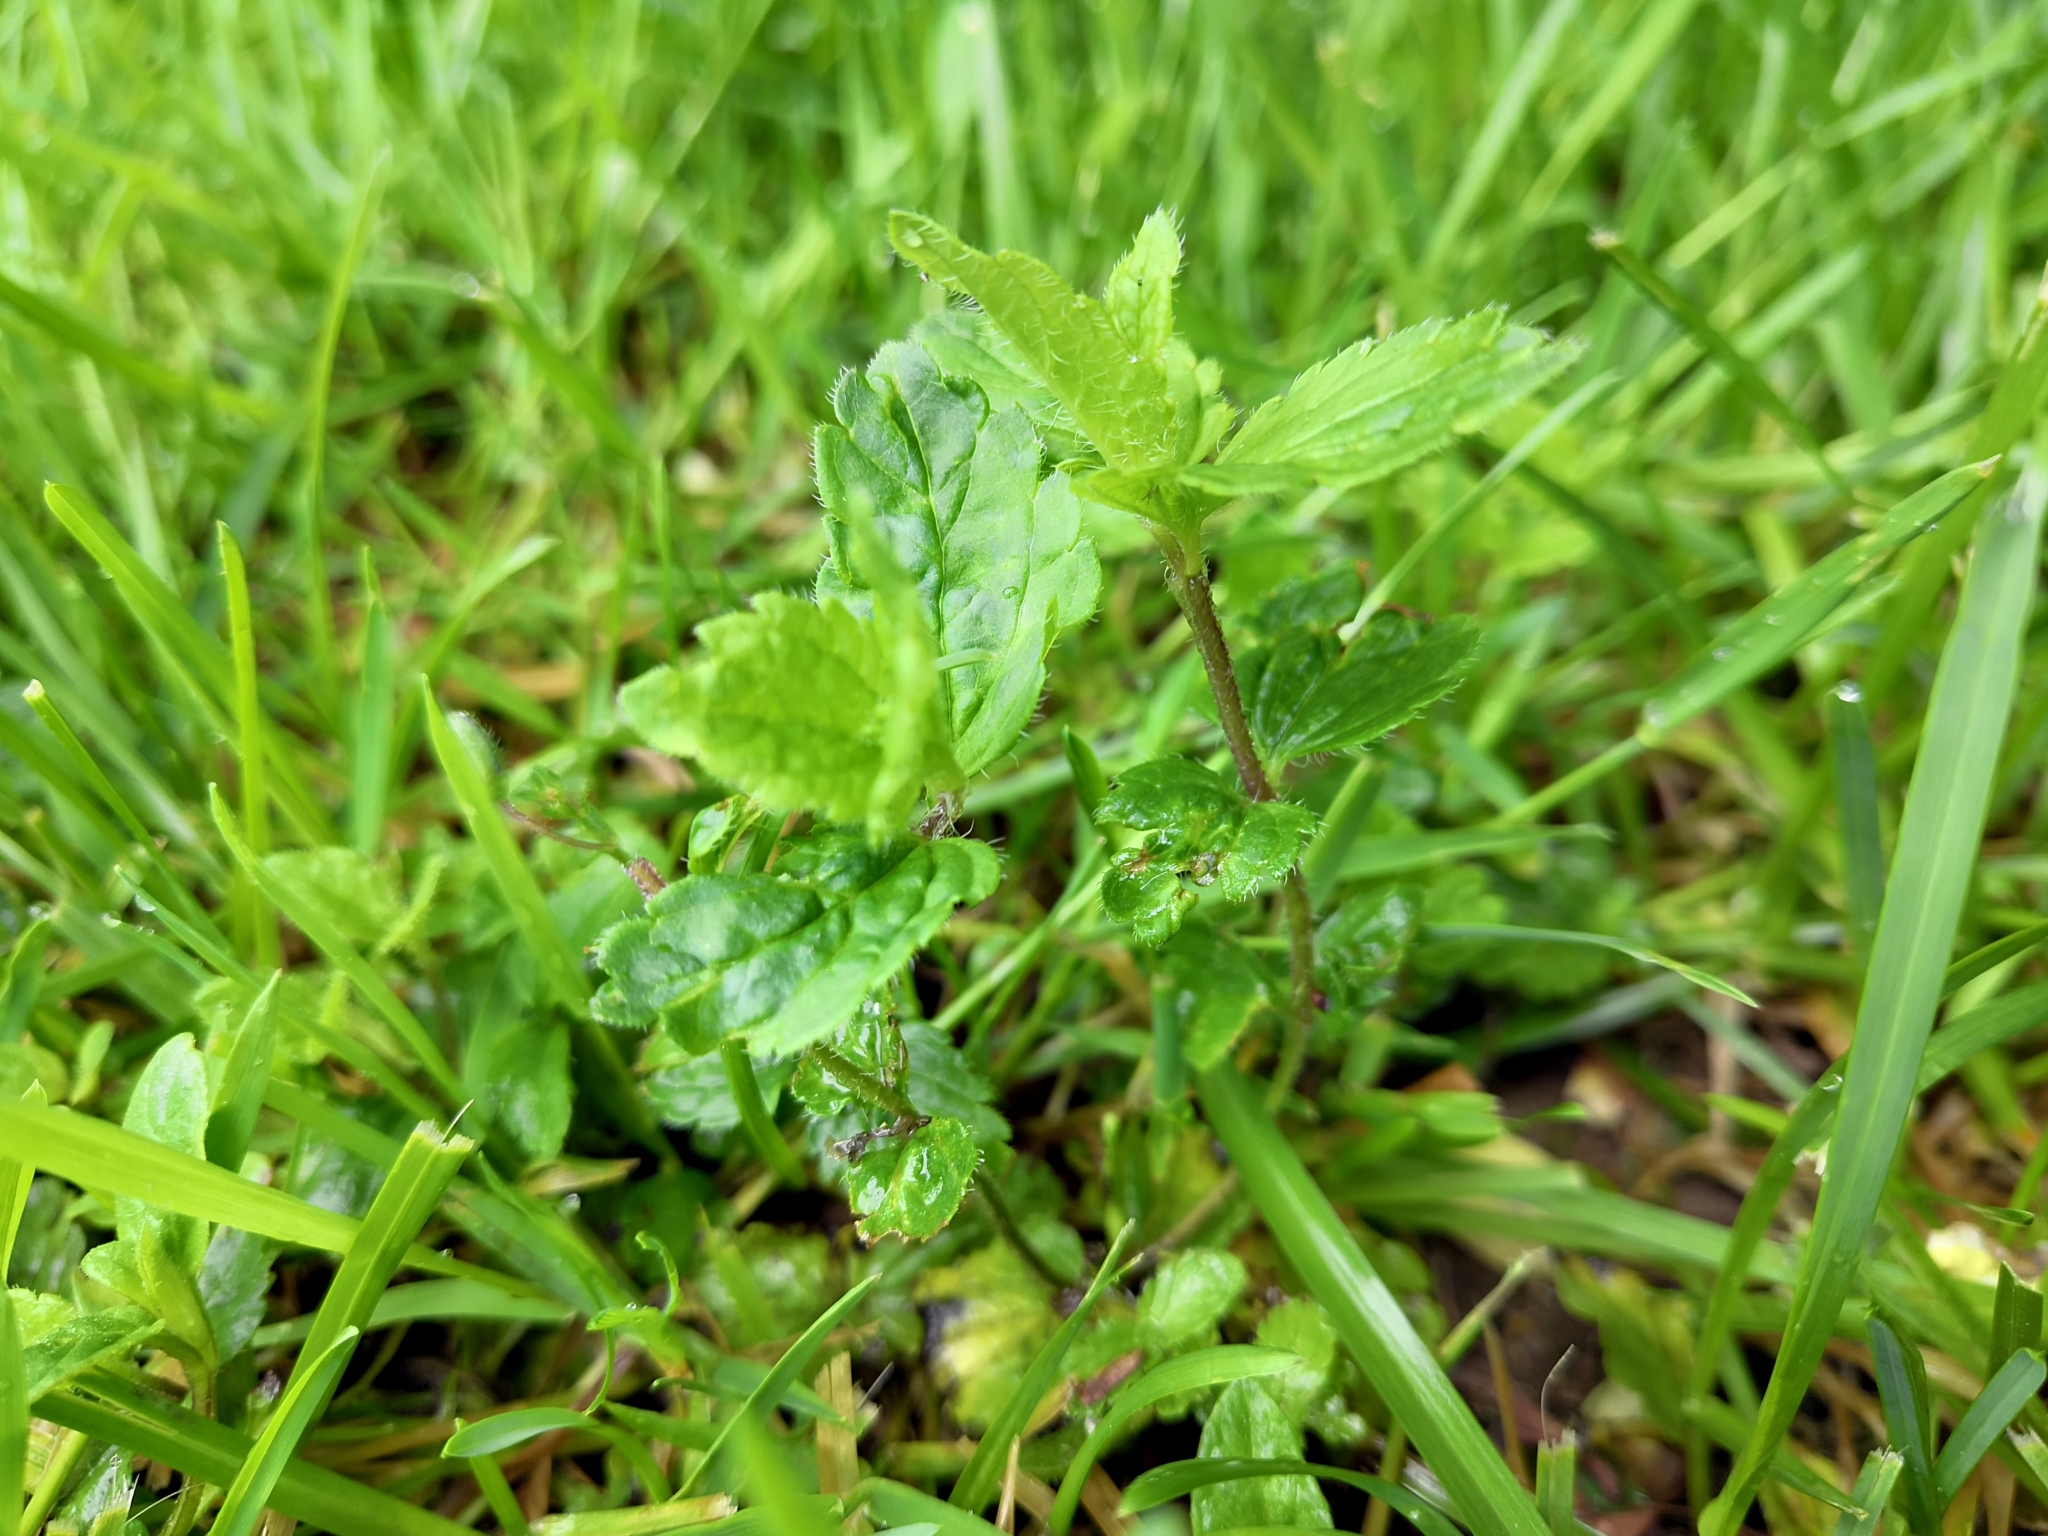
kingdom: Plantae
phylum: Tracheophyta
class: Magnoliopsida
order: Lamiales
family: Plantaginaceae
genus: Veronica
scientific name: Veronica chamaedrys
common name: Germander speedwell
